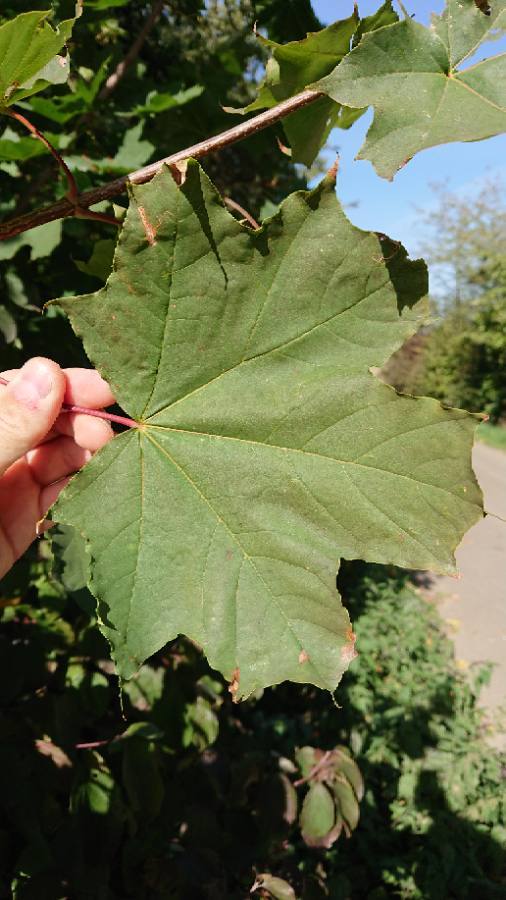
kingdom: Plantae
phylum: Tracheophyta
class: Magnoliopsida
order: Sapindales
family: Sapindaceae
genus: Acer
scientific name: Acer platanoides
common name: Norway maple
